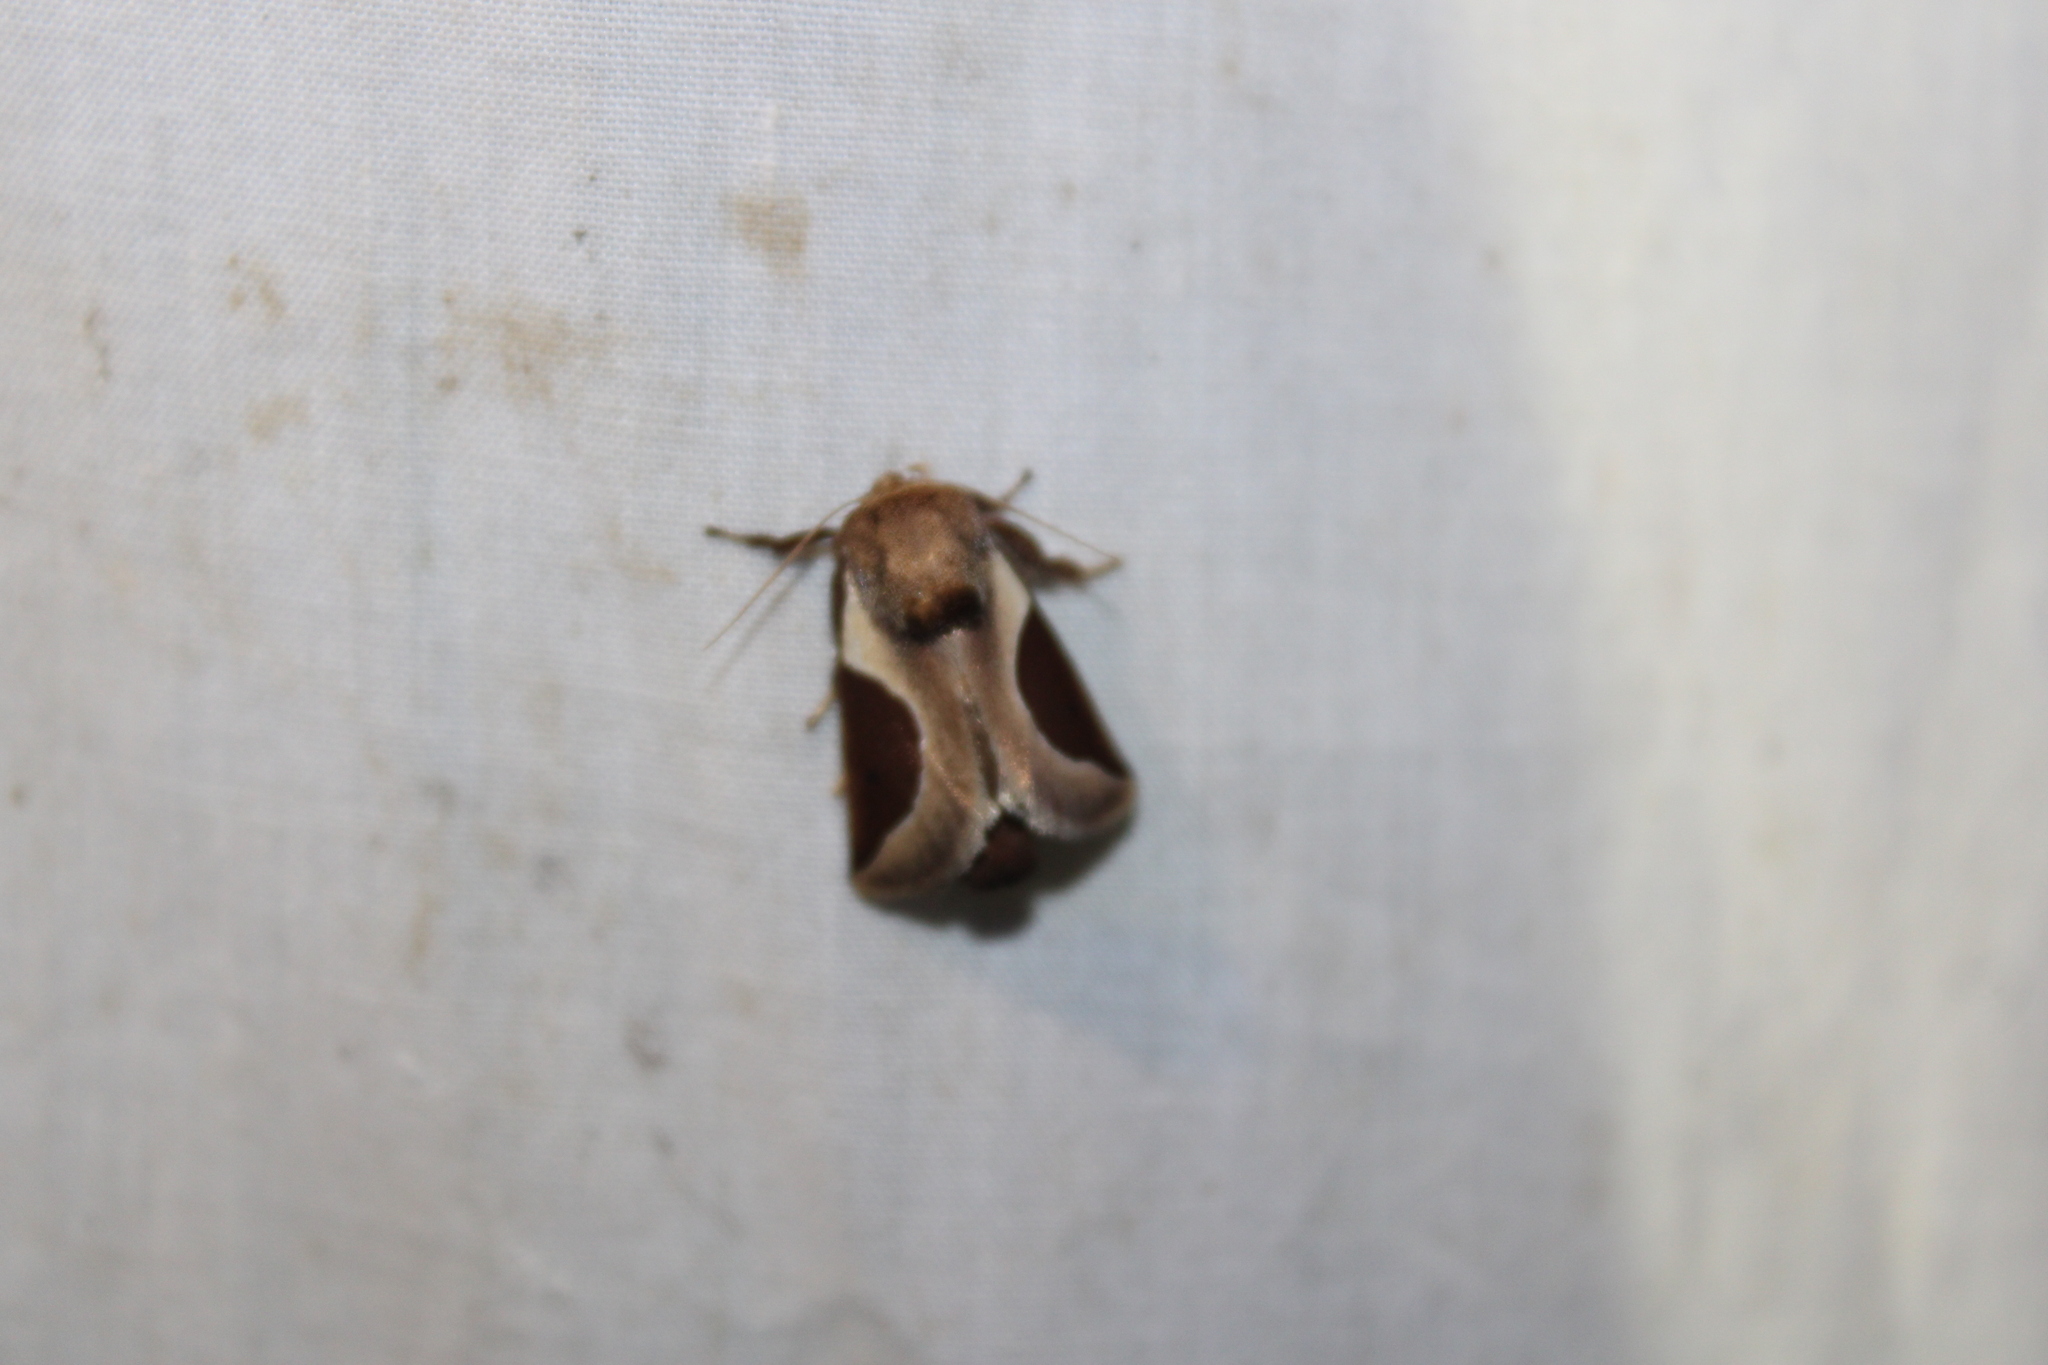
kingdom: Animalia
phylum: Arthropoda
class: Insecta
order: Lepidoptera
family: Limacodidae
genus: Prolimacodes
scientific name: Prolimacodes badia
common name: Skiff moth
